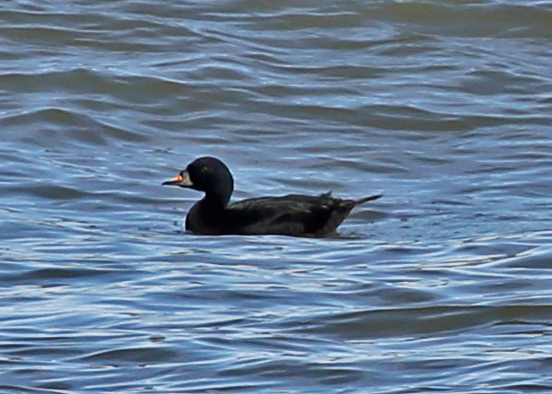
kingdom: Animalia
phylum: Chordata
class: Aves
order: Anseriformes
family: Anatidae
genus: Melanitta
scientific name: Melanitta nigra
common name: Common scoter
